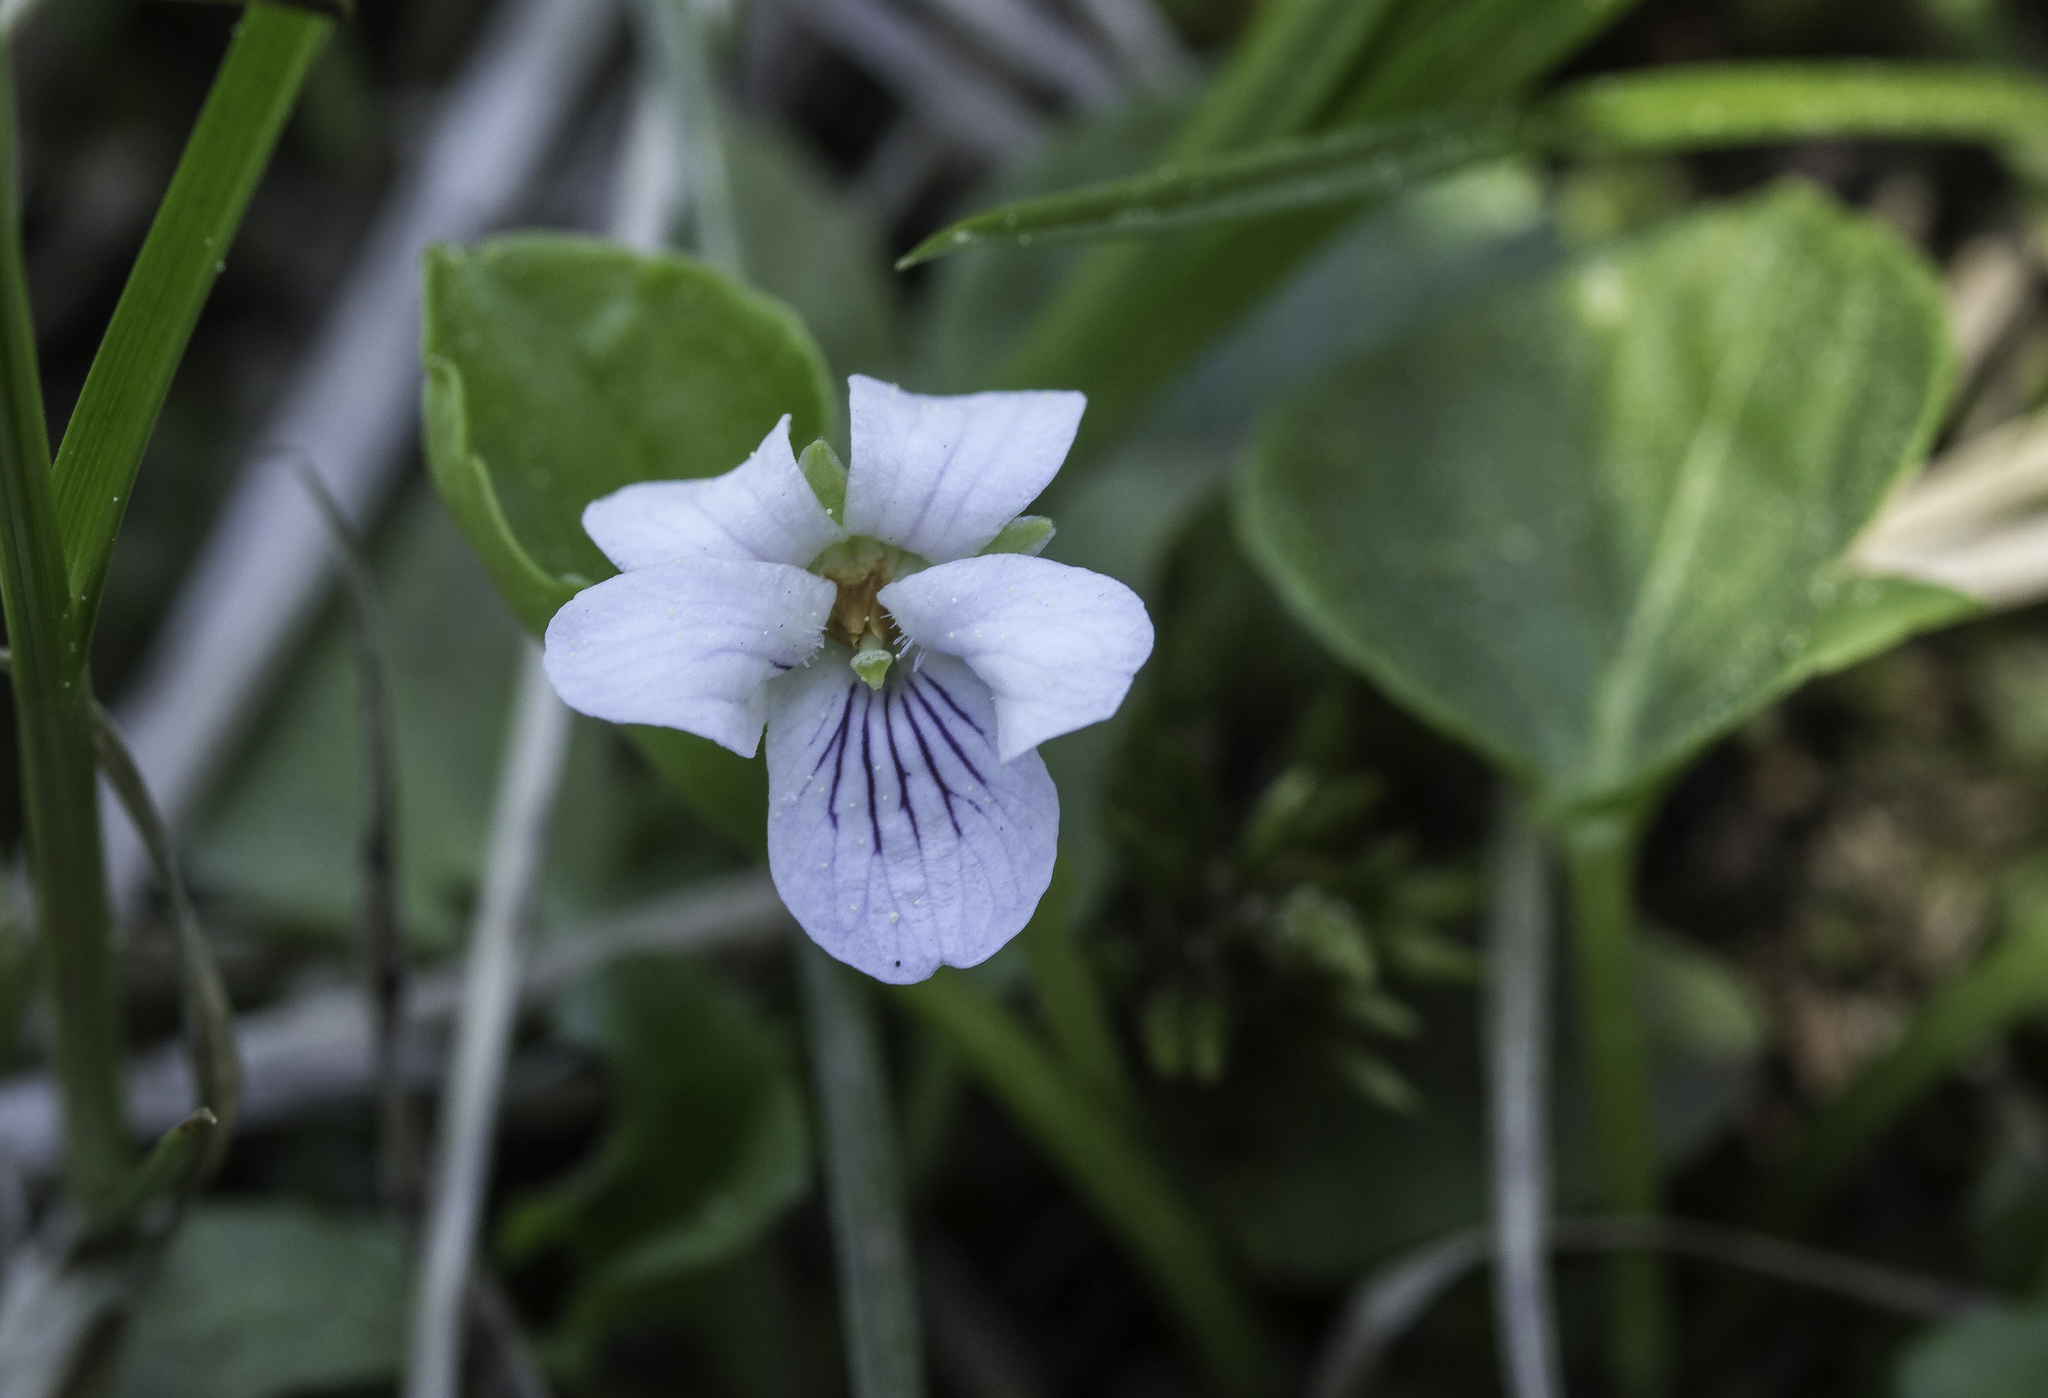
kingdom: Plantae
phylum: Tracheophyta
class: Magnoliopsida
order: Malpighiales
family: Violaceae
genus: Viola
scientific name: Viola minuscula
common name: Northern white violet
